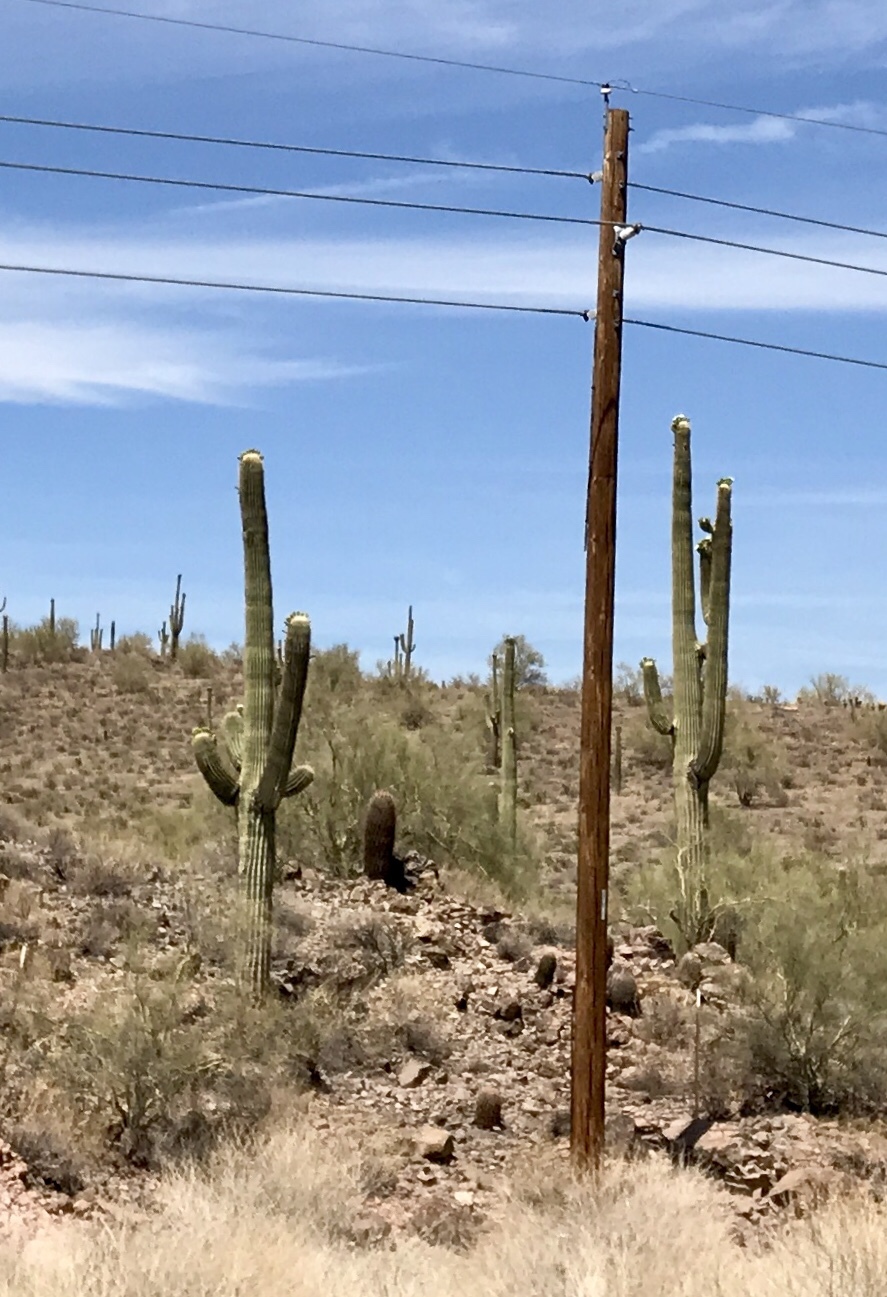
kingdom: Plantae
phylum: Tracheophyta
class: Magnoliopsida
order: Caryophyllales
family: Cactaceae
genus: Carnegiea
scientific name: Carnegiea gigantea
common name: Saguaro
